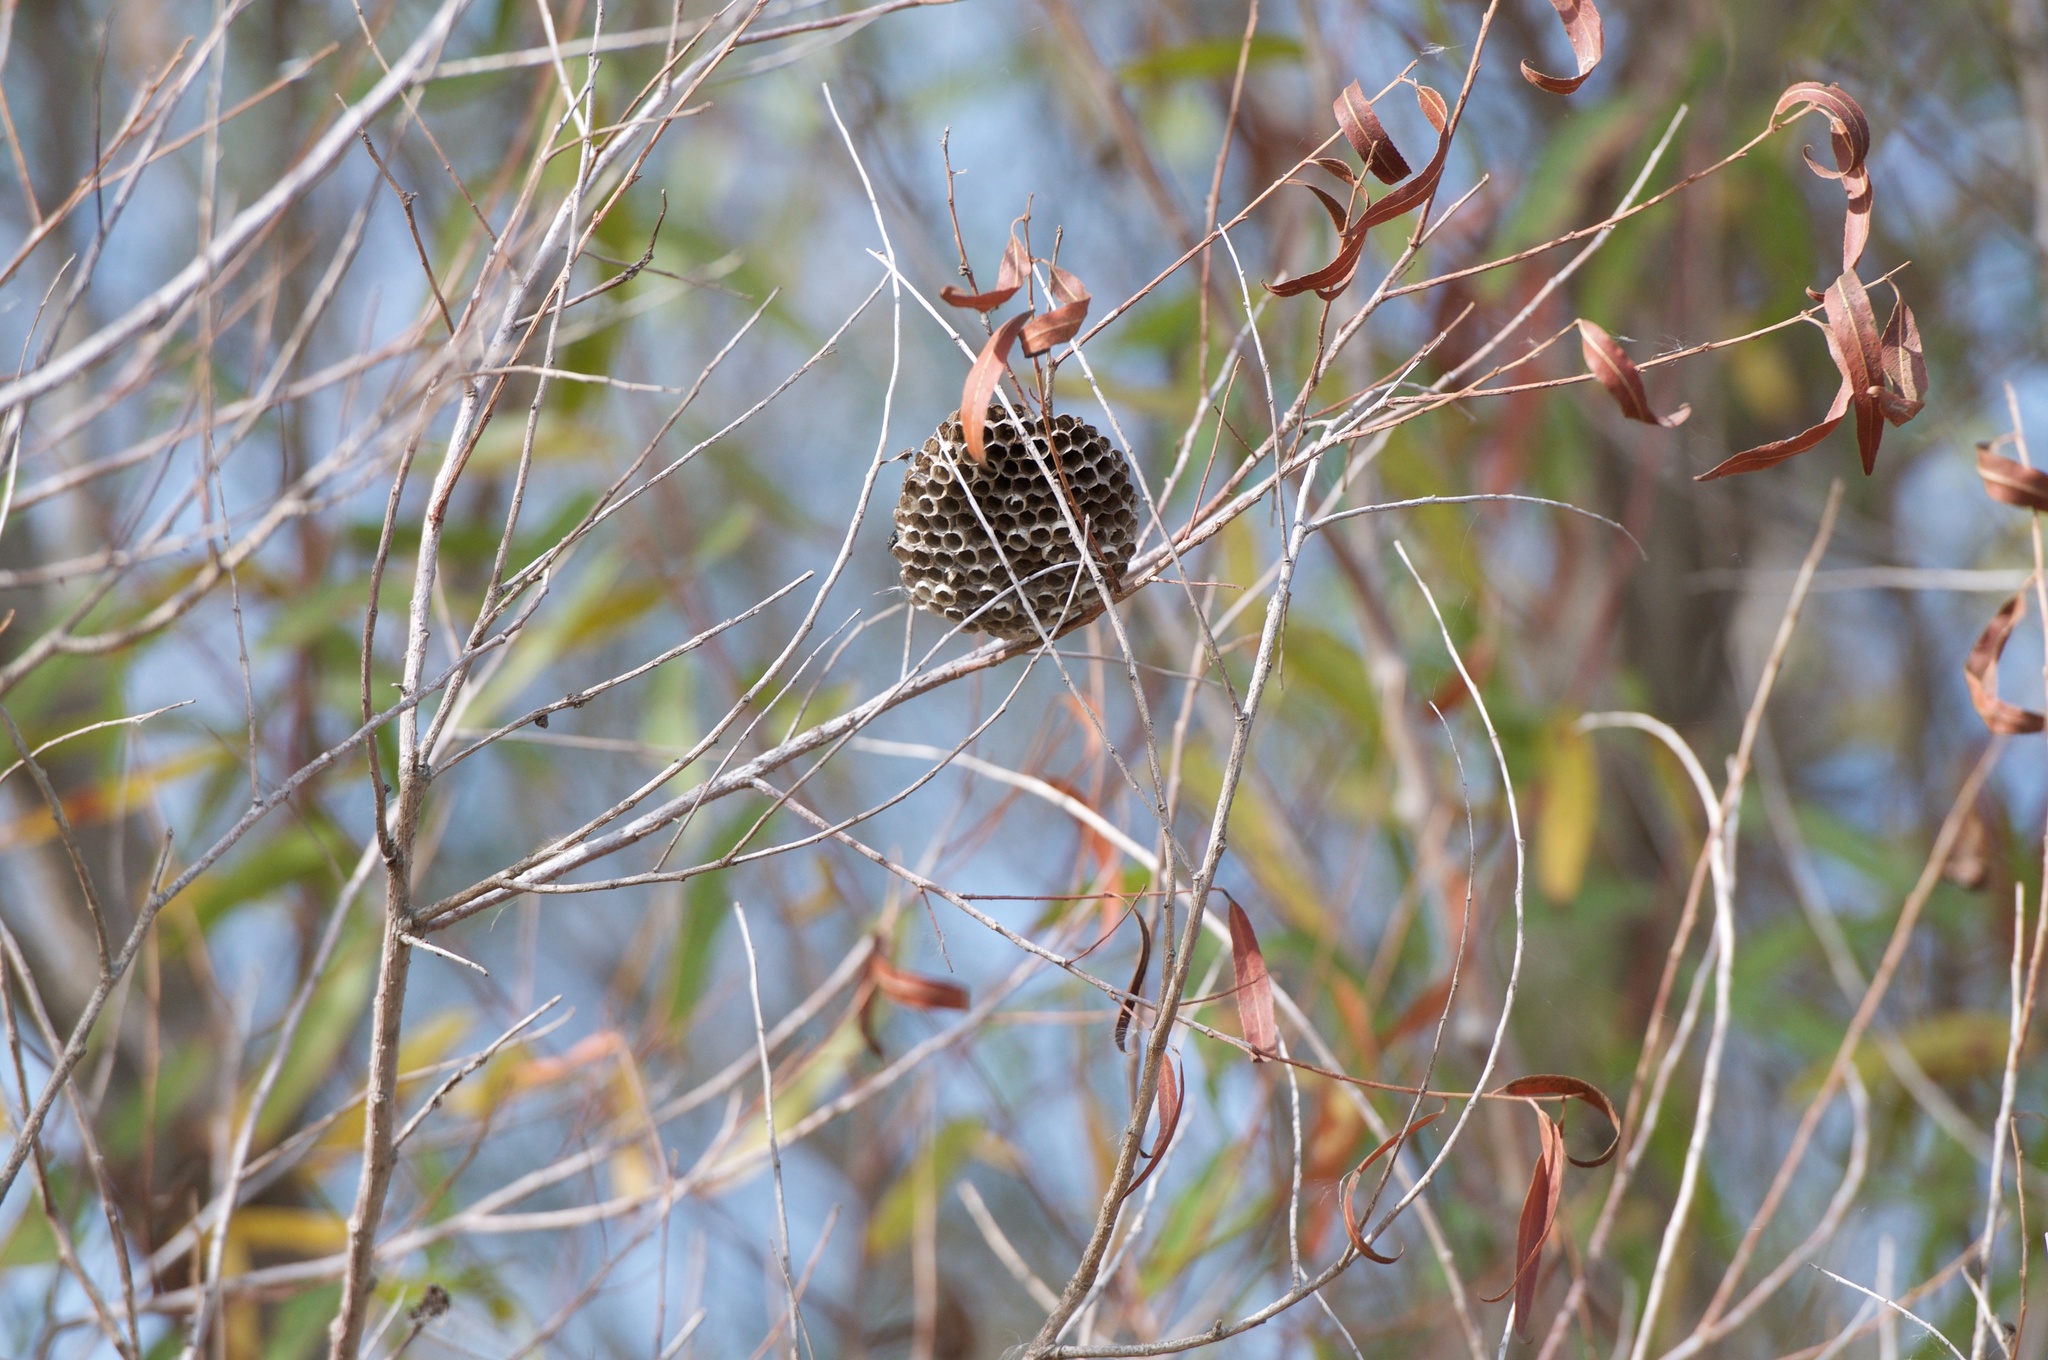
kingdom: Animalia
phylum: Arthropoda
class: Insecta
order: Hymenoptera
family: Vespidae
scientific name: Vespidae
